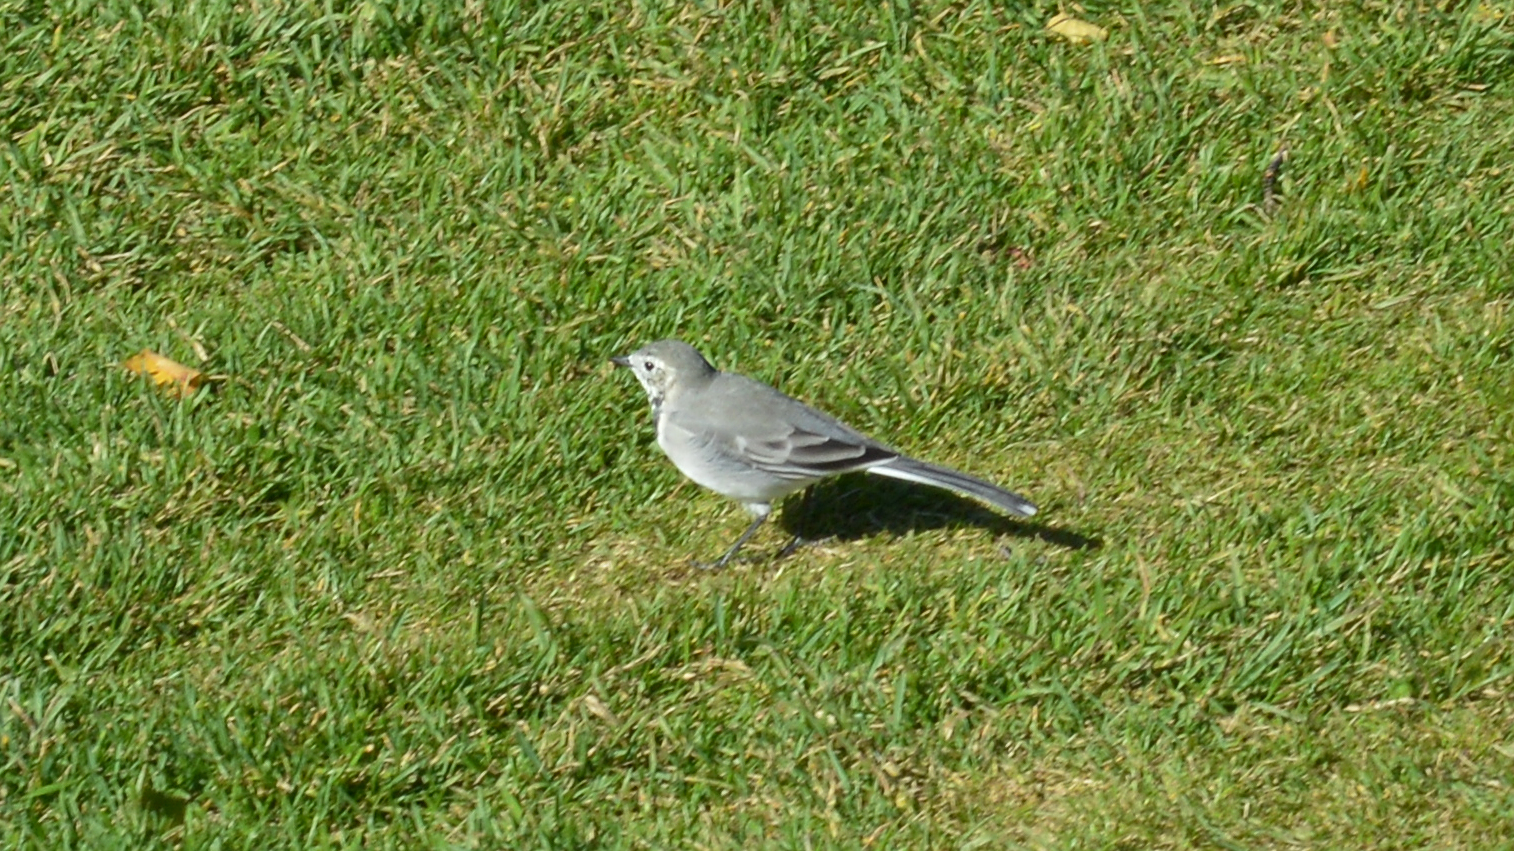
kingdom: Animalia
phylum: Chordata
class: Aves
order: Passeriformes
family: Motacillidae
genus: Motacilla
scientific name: Motacilla alba
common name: White wagtail
